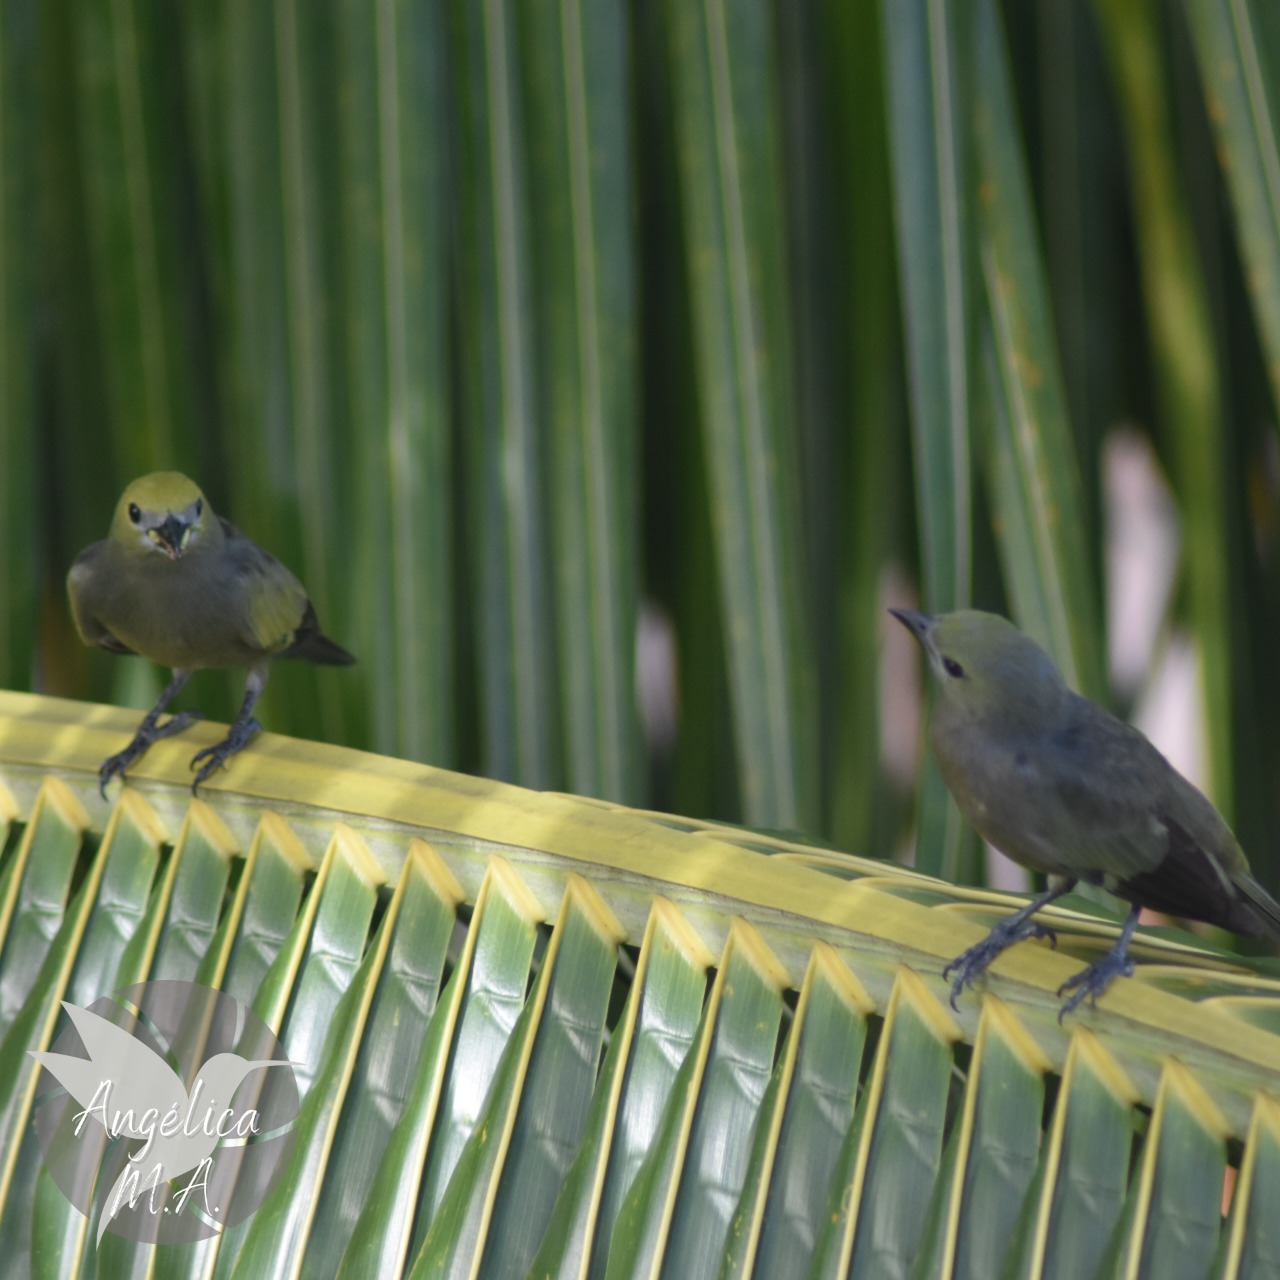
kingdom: Animalia
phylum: Chordata
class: Aves
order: Passeriformes
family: Thraupidae
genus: Thraupis
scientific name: Thraupis palmarum
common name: Palm tanager
